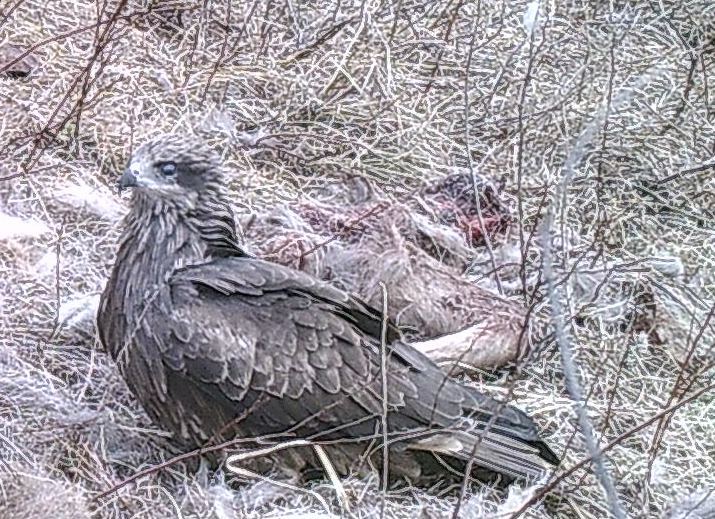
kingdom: Animalia
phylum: Chordata
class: Aves
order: Accipitriformes
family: Accipitridae
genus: Milvus
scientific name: Milvus migrans
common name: Black kite
